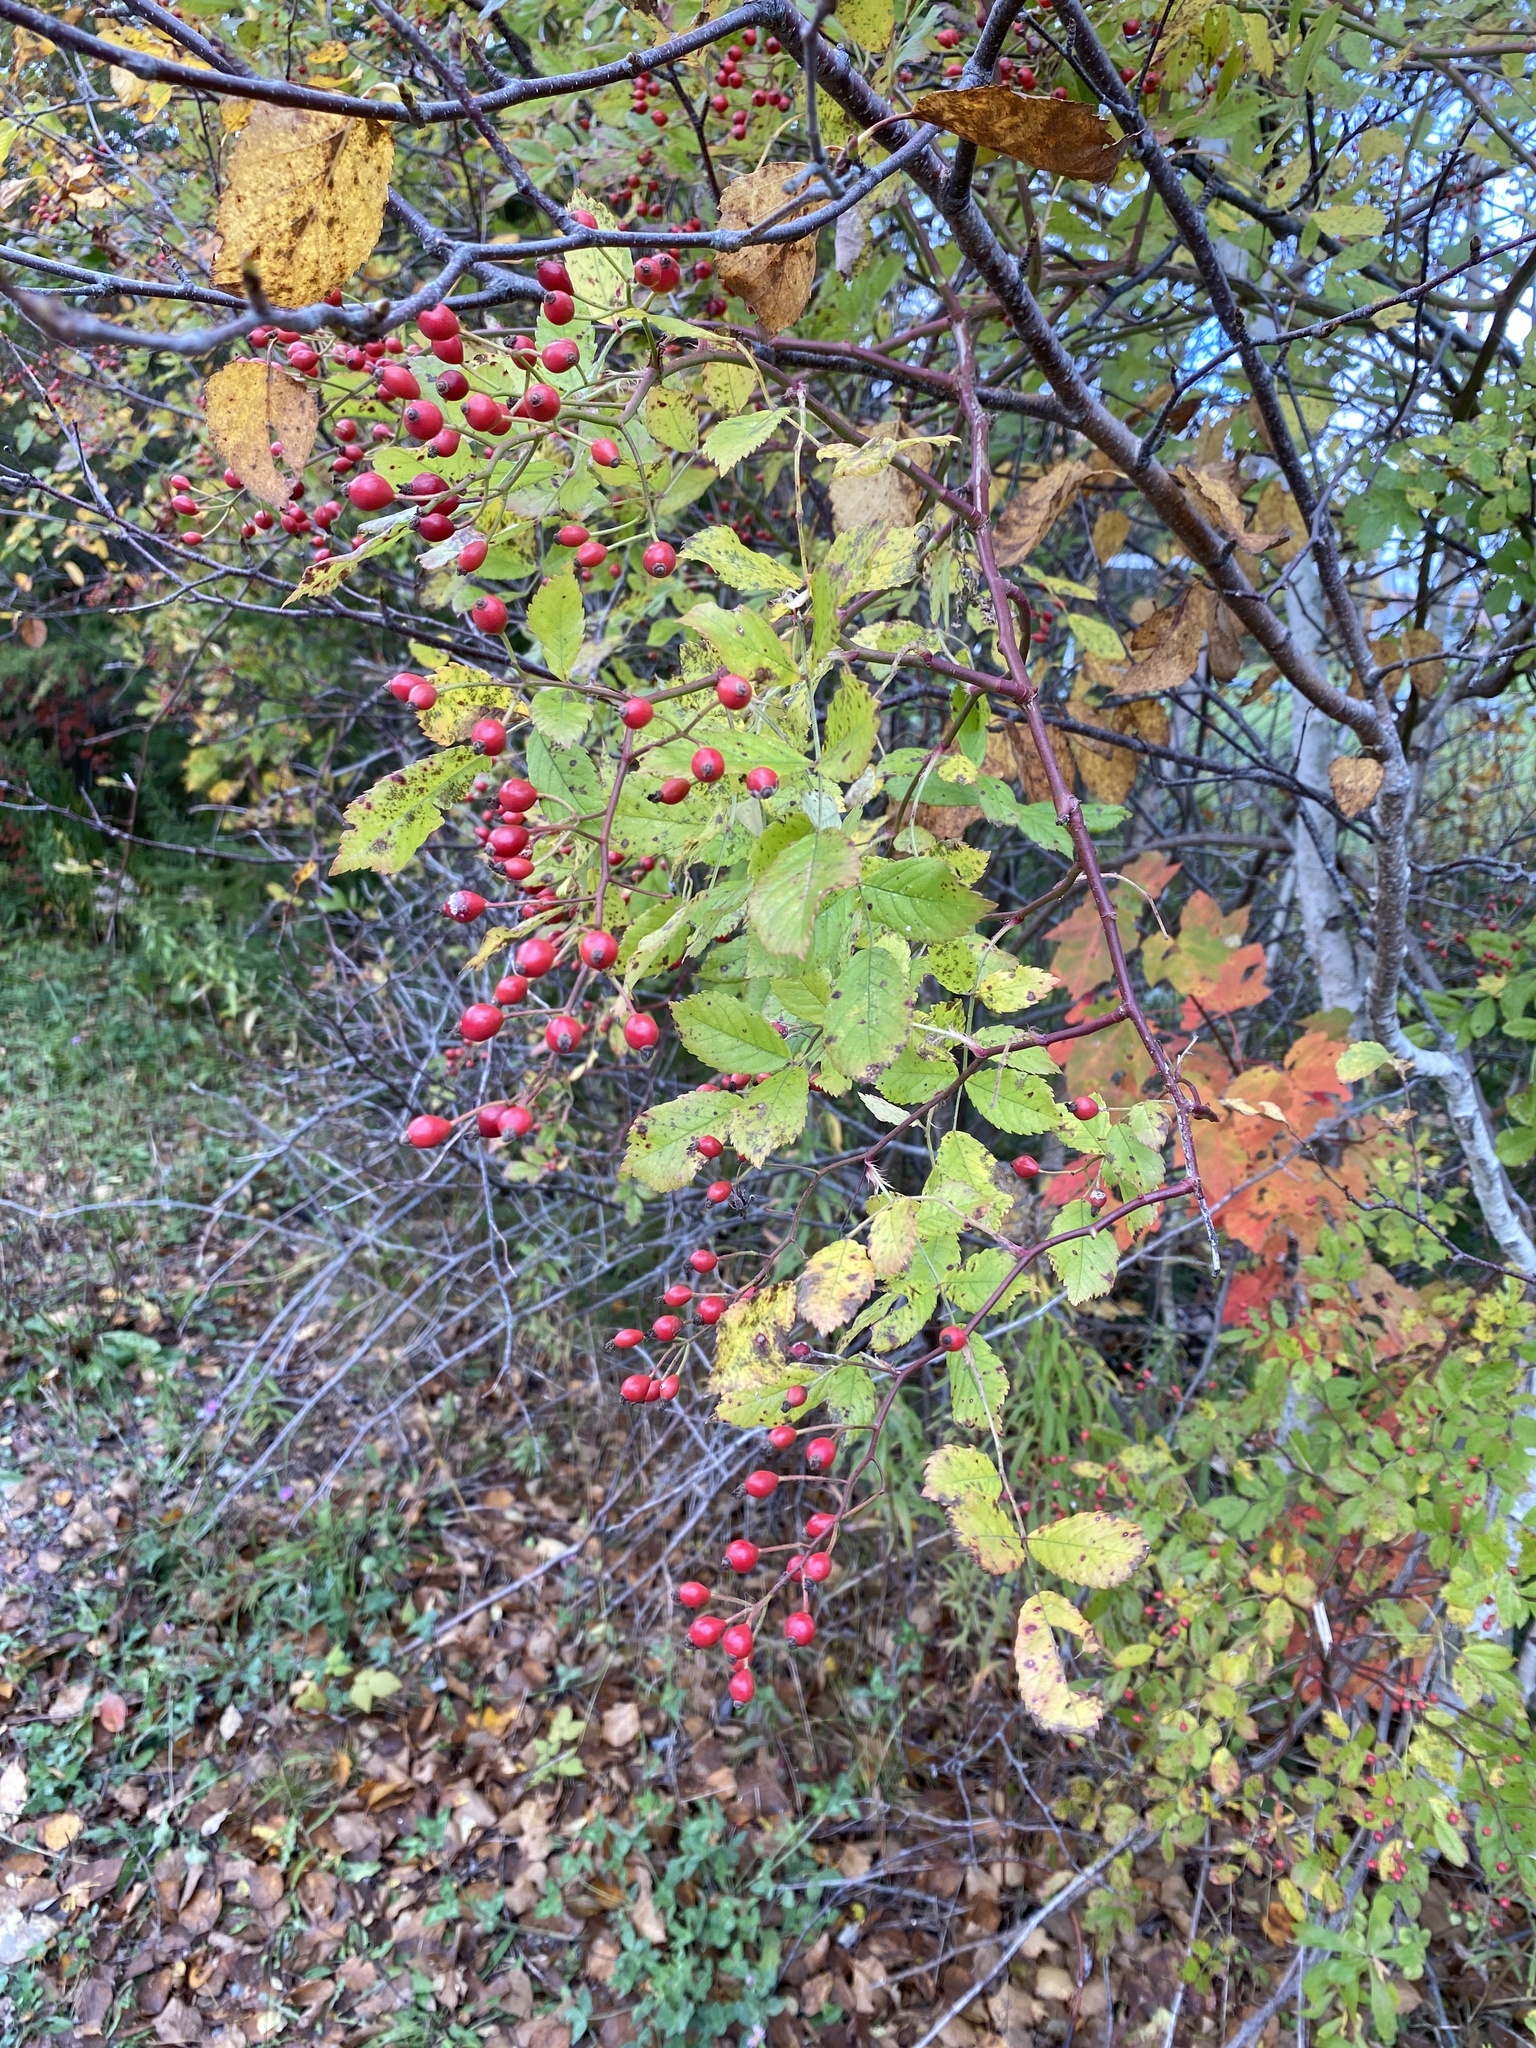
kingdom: Plantae
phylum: Tracheophyta
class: Magnoliopsida
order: Rosales
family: Rosaceae
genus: Rosa
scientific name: Rosa multiflora
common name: Multiflora rose
